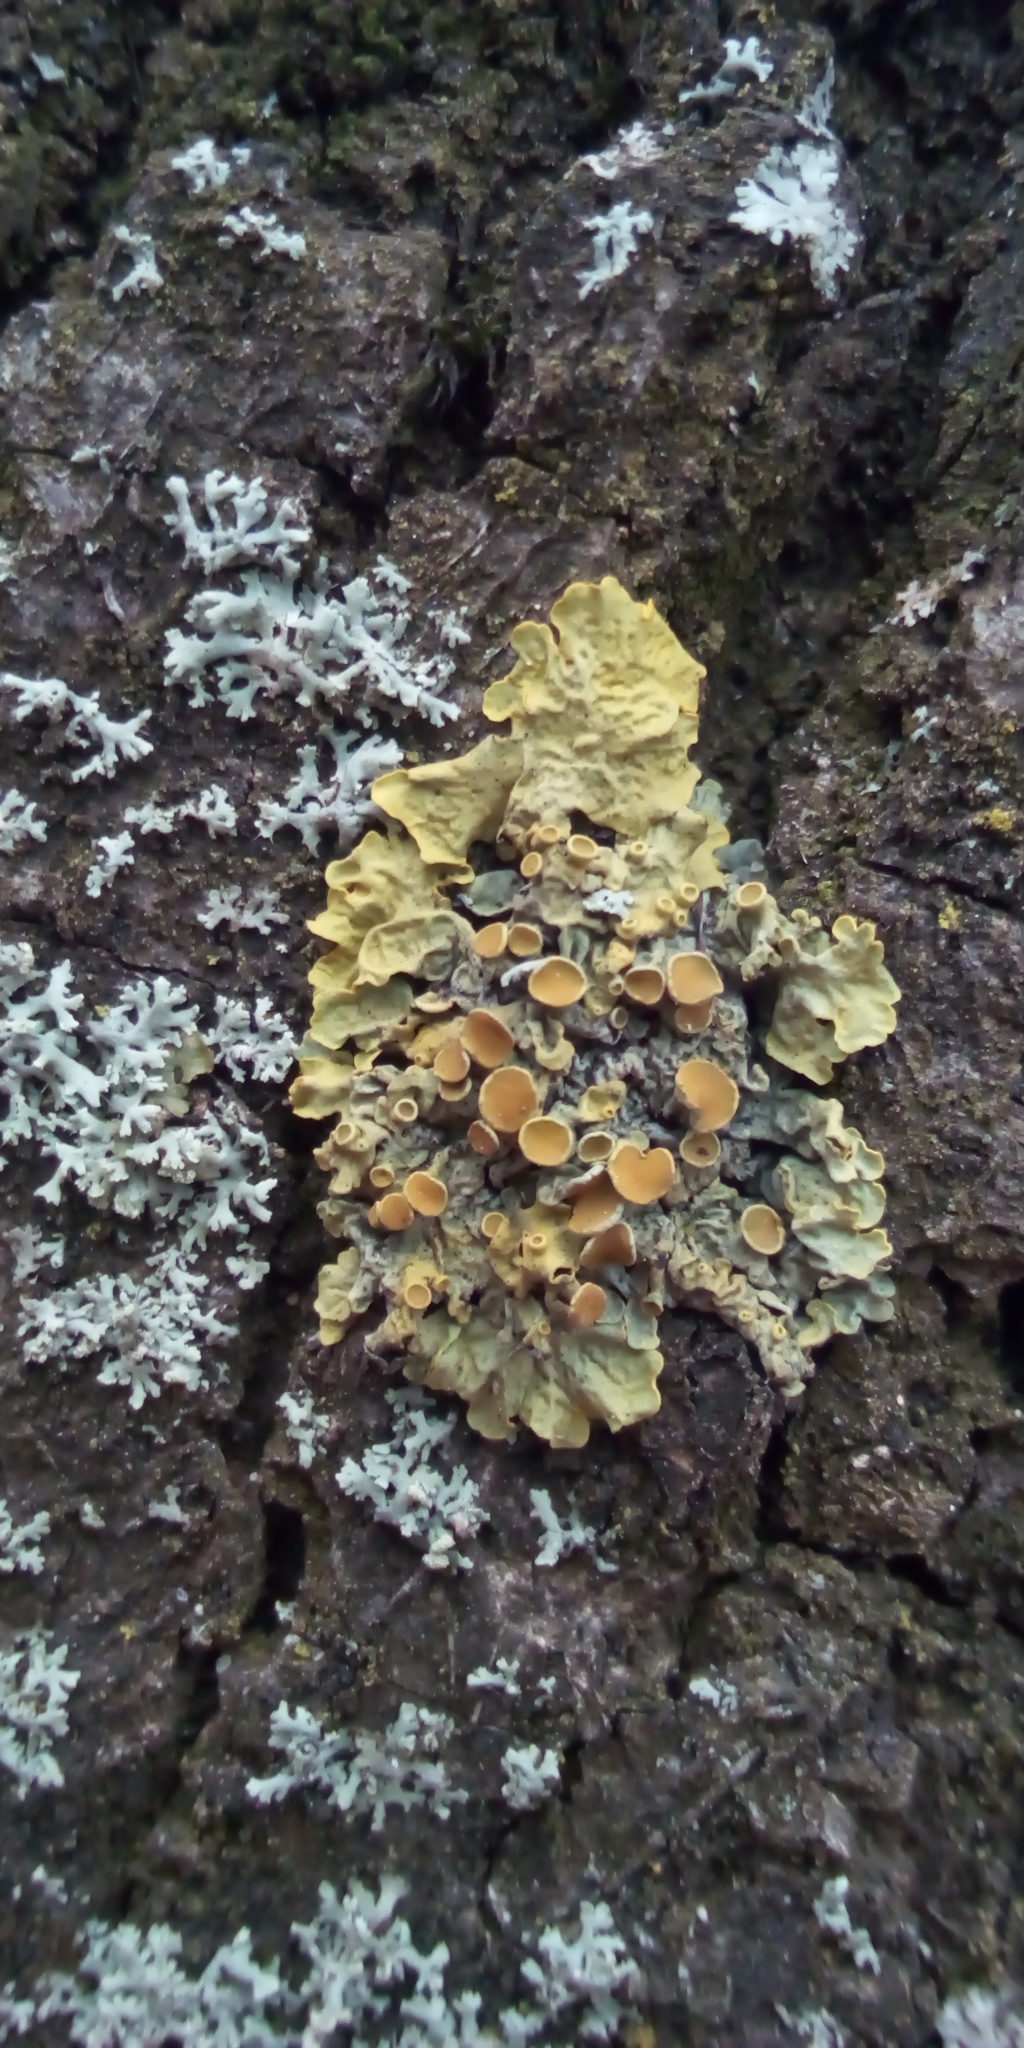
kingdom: Fungi
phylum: Ascomycota
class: Lecanoromycetes
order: Teloschistales
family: Teloschistaceae
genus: Xanthoria
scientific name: Xanthoria parietina
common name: Common orange lichen
